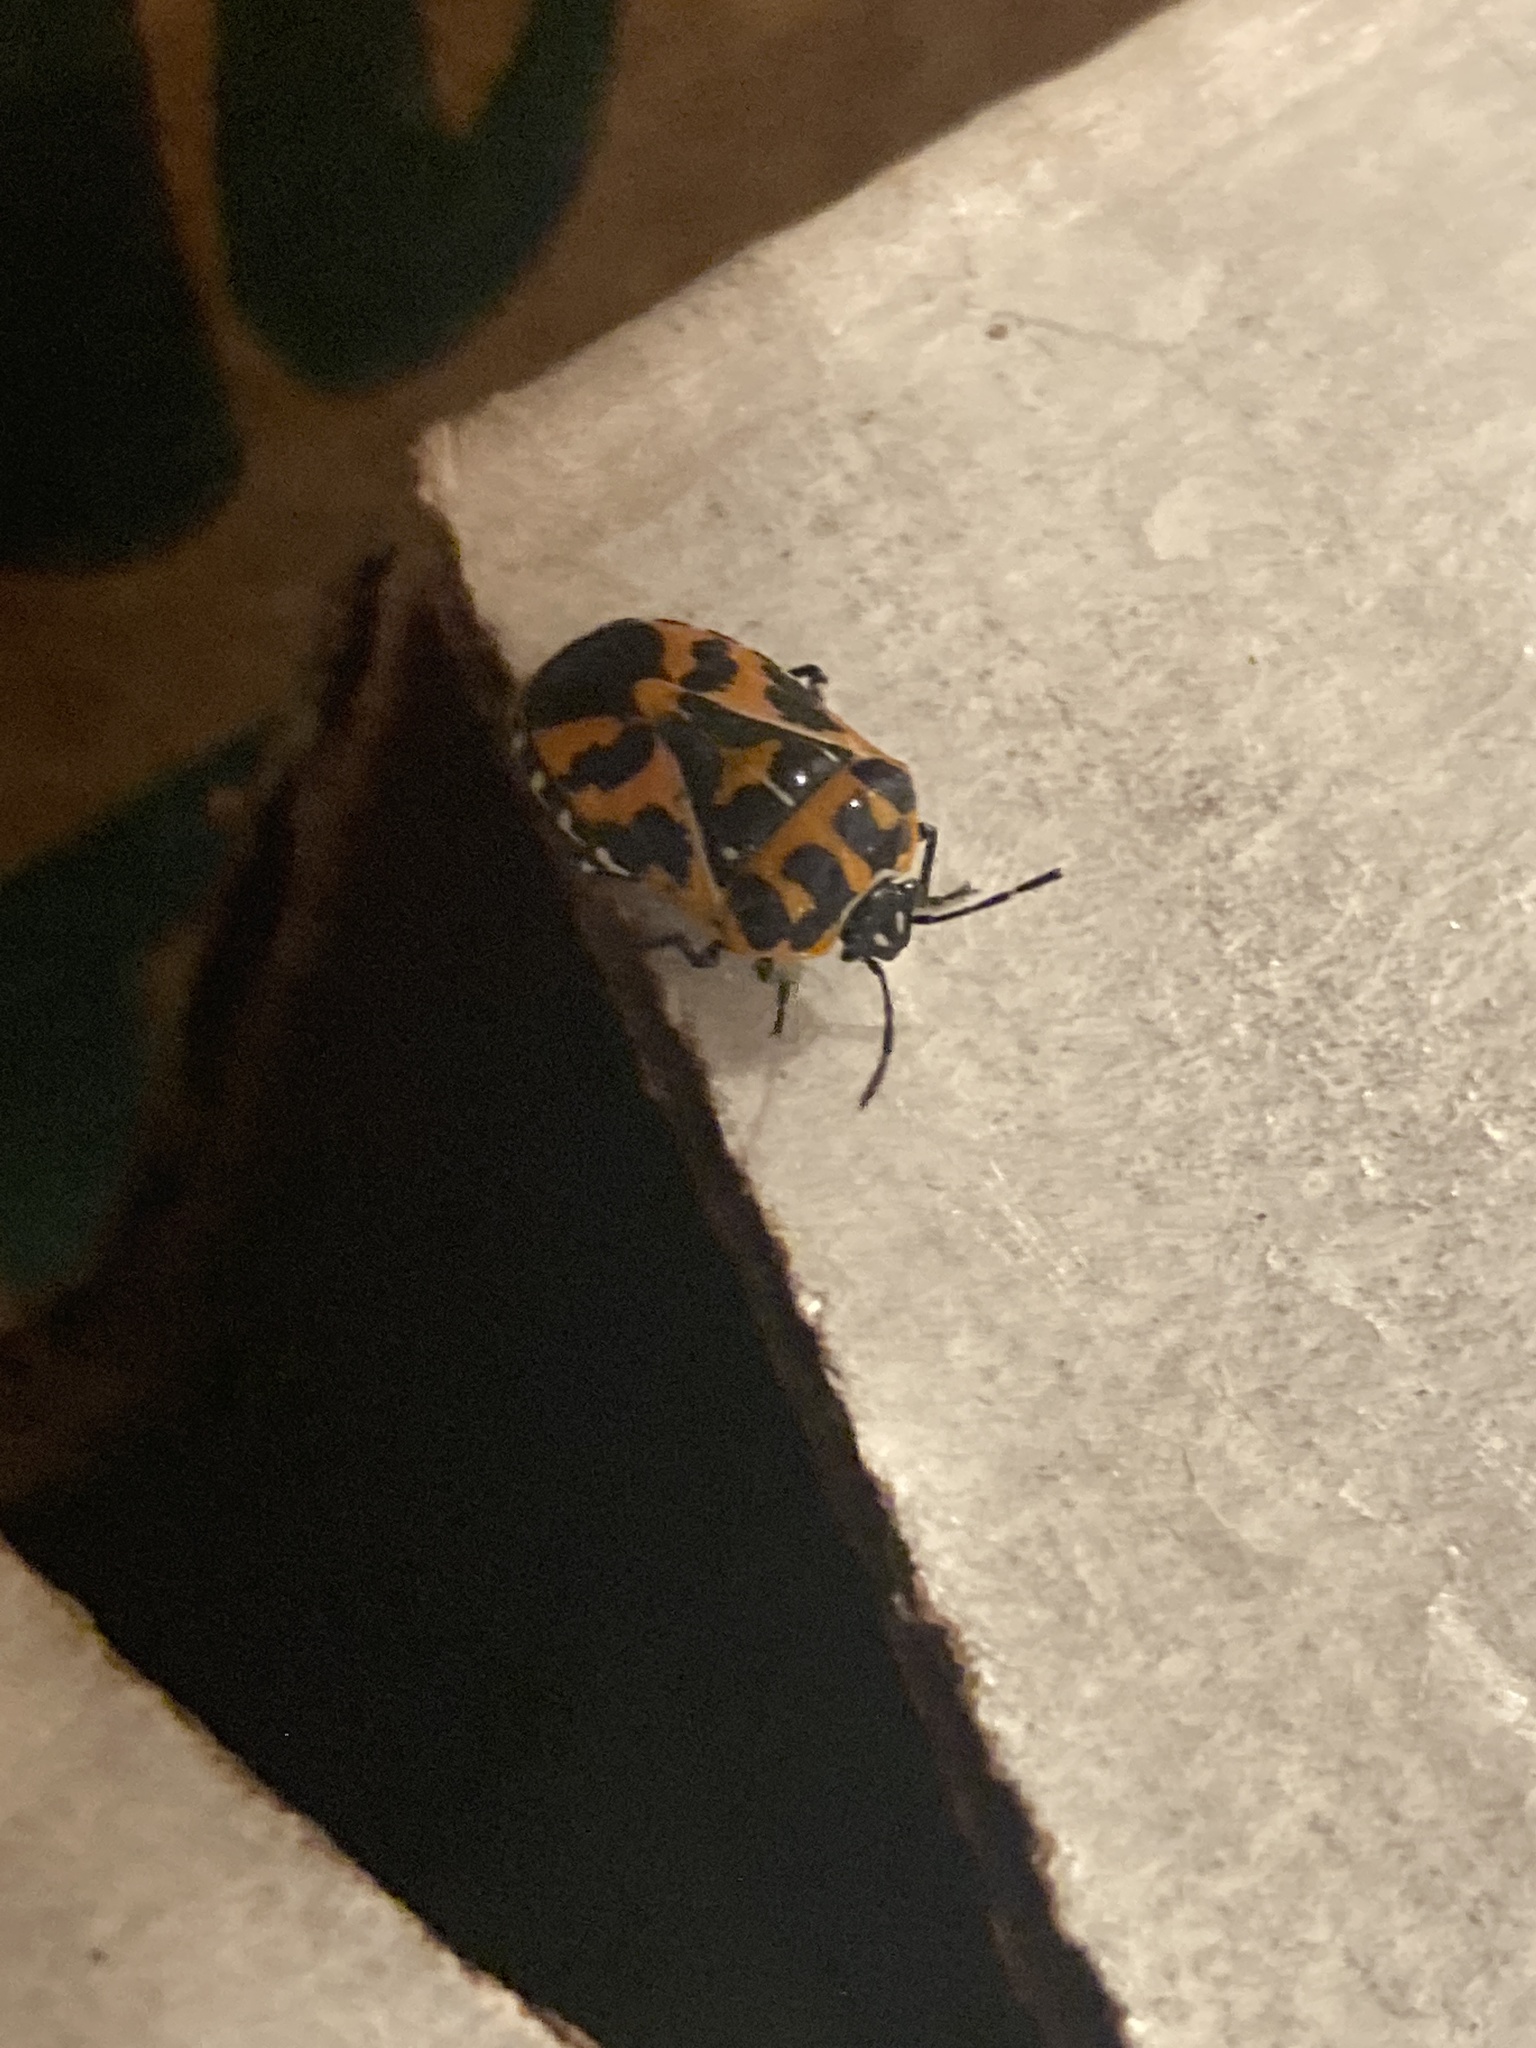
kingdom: Animalia
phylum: Arthropoda
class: Insecta
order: Hemiptera
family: Pentatomidae
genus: Murgantia
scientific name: Murgantia histrionica
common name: Harlequin bug
